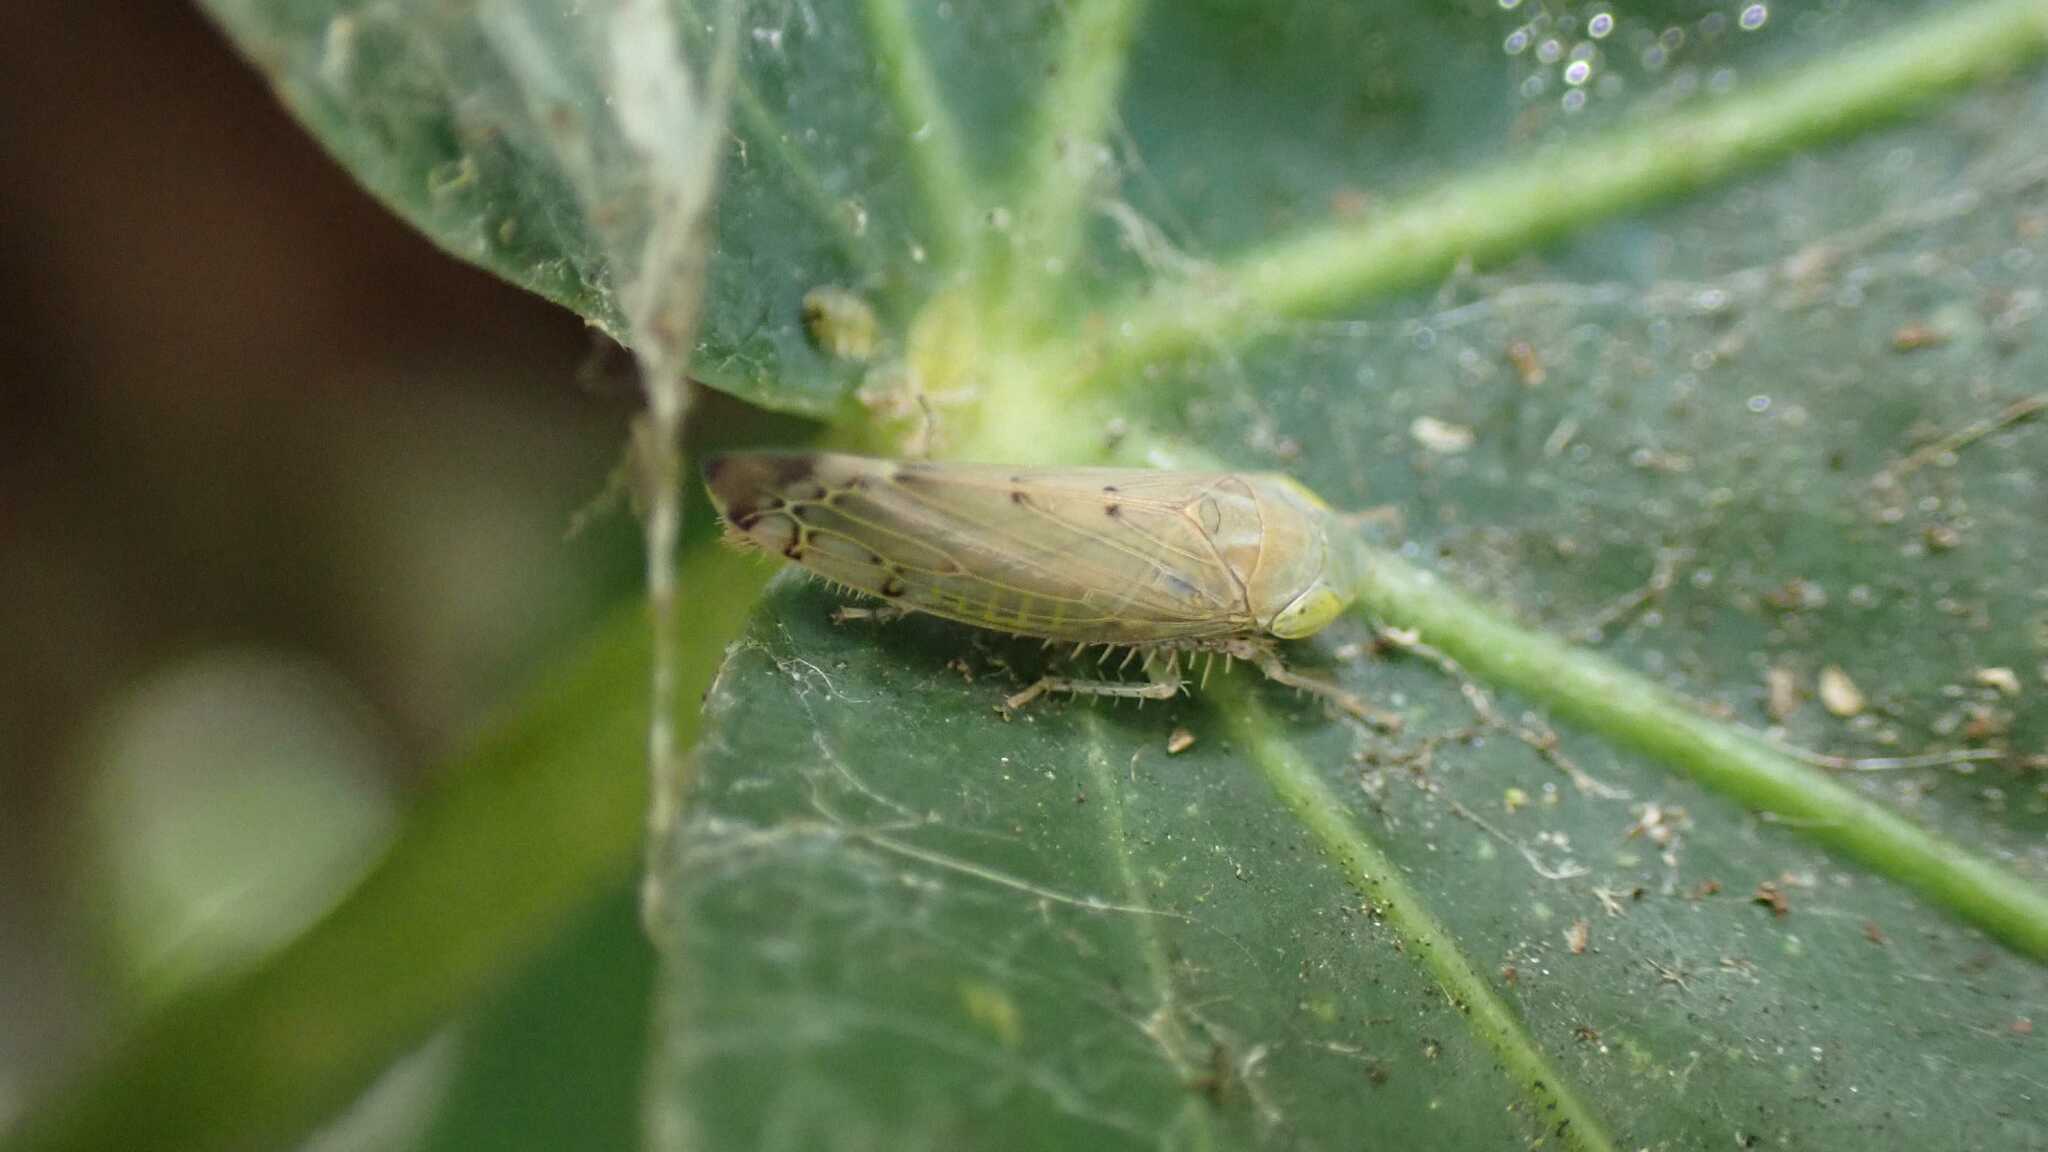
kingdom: Animalia
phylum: Arthropoda
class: Insecta
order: Hemiptera
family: Cicadellidae
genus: Synophropsis
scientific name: Synophropsis lauri
